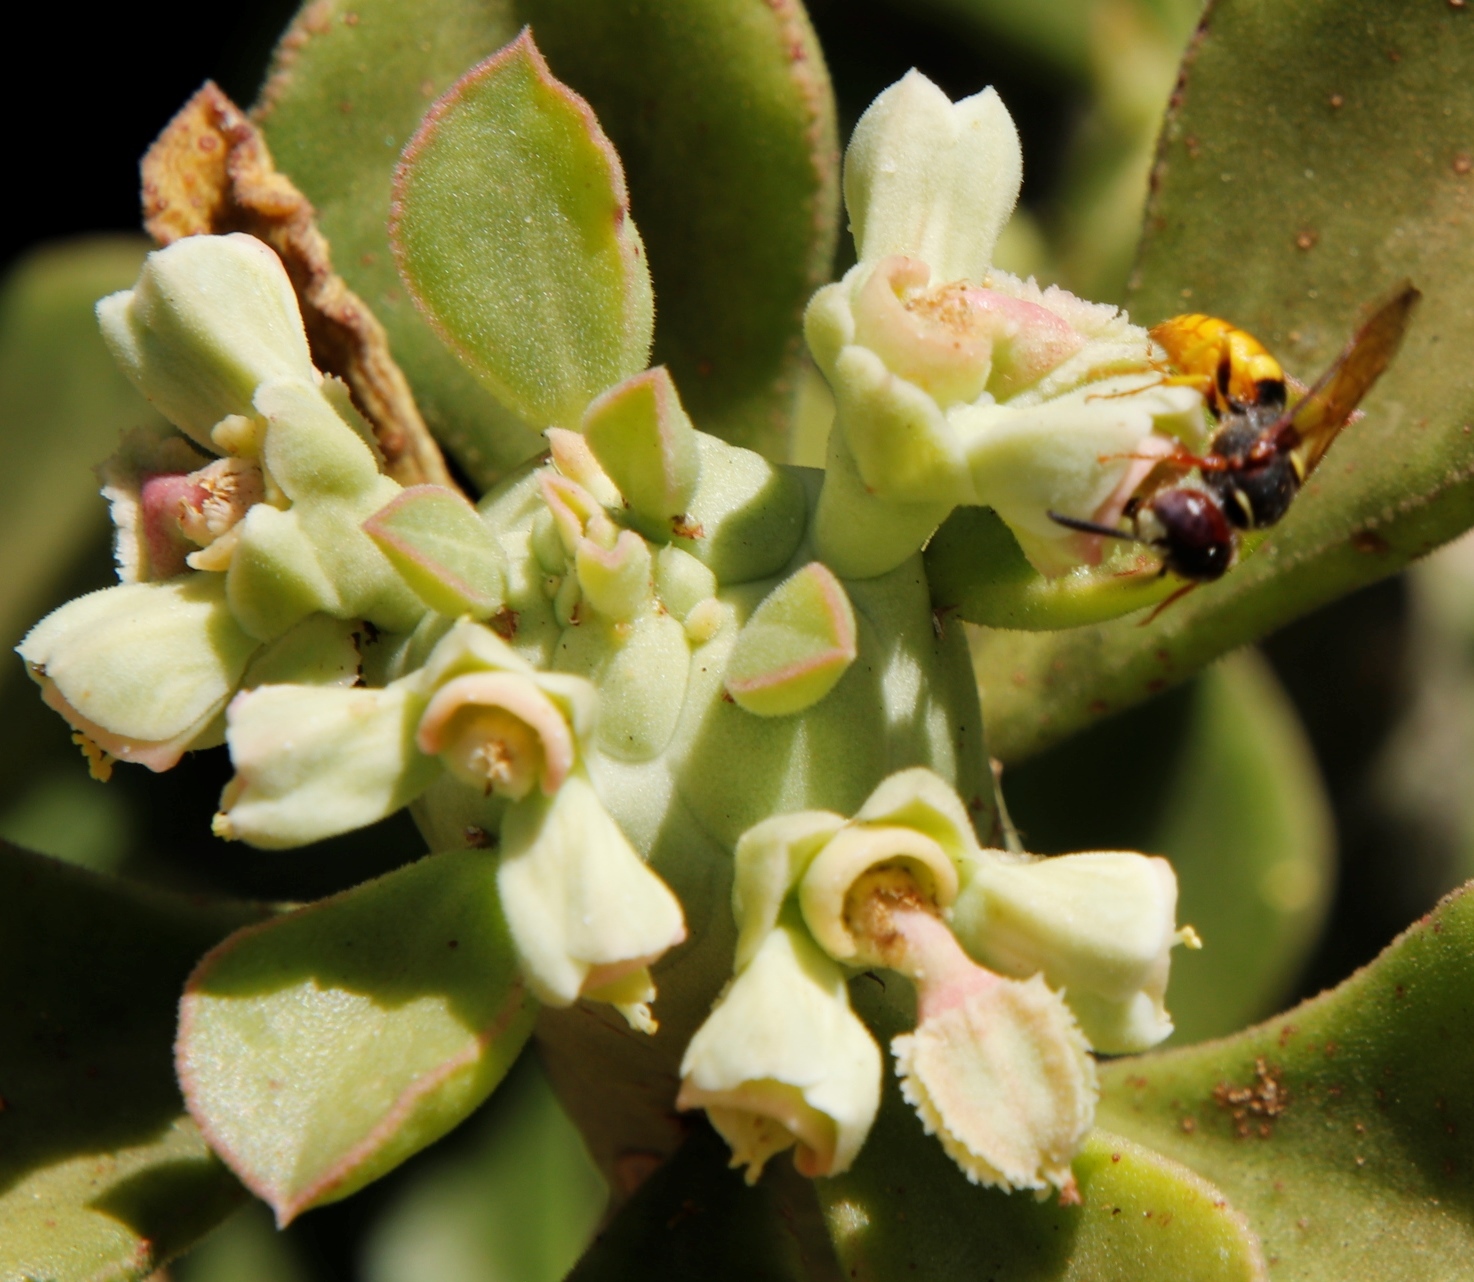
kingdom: Animalia
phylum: Arthropoda
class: Insecta
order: Hymenoptera
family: Crabronidae
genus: Philanthus
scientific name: Philanthus triangulum
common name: Bee wolf
